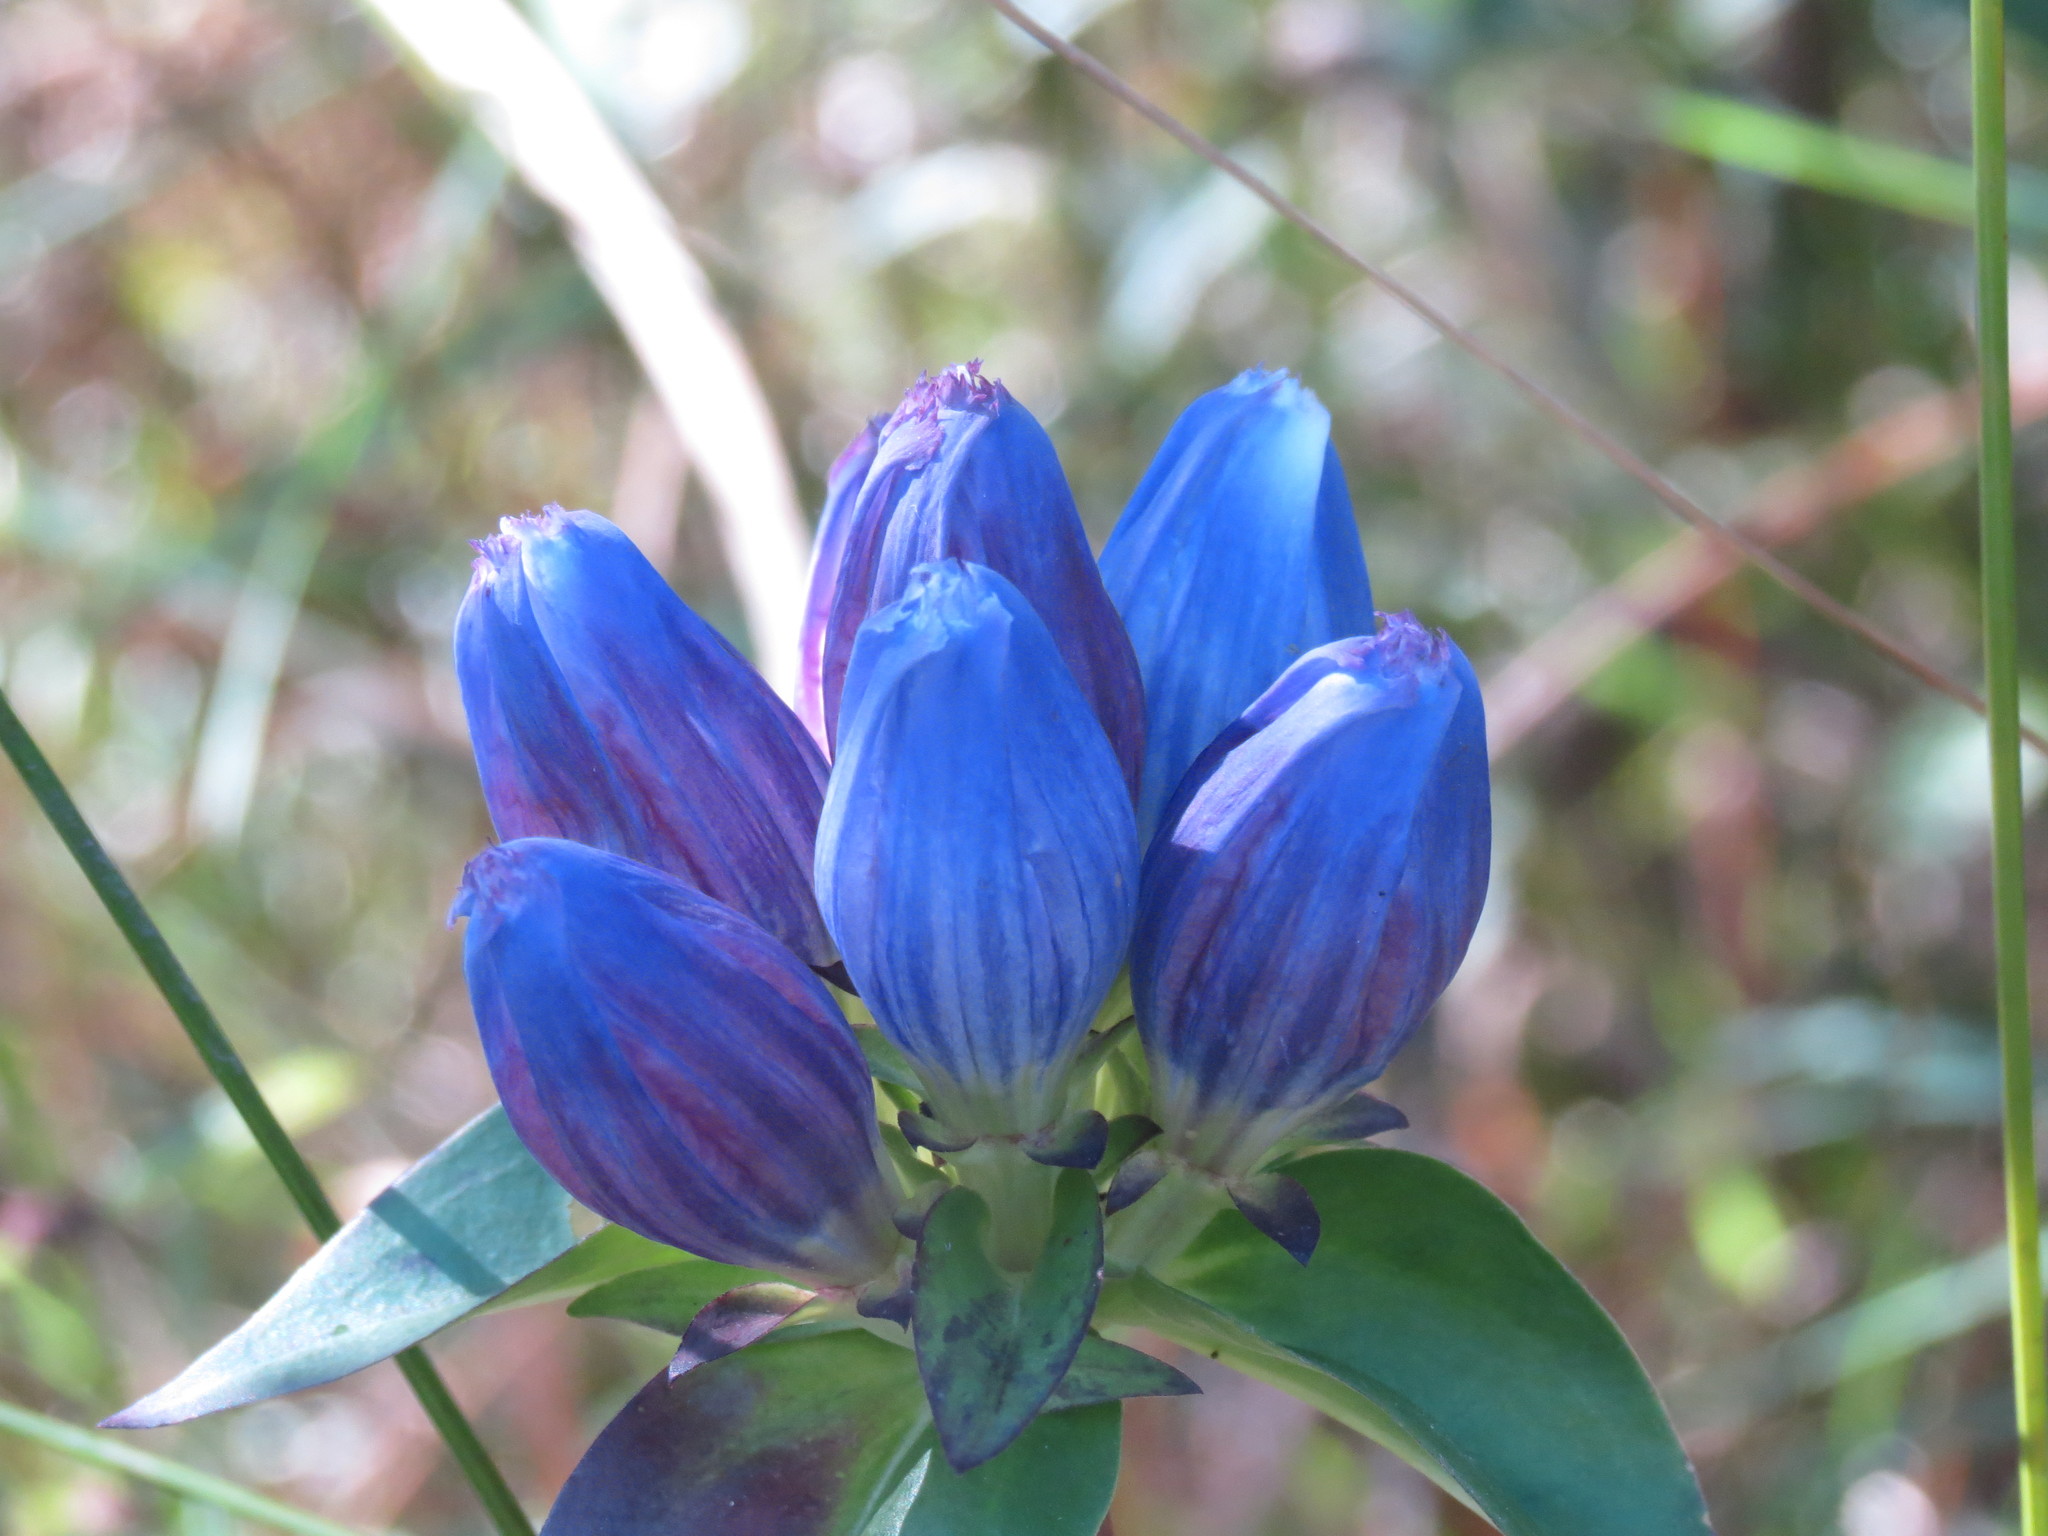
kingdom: Plantae
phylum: Tracheophyta
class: Magnoliopsida
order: Gentianales
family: Gentianaceae
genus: Gentiana
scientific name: Gentiana andrewsii
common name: Bottle gentian
